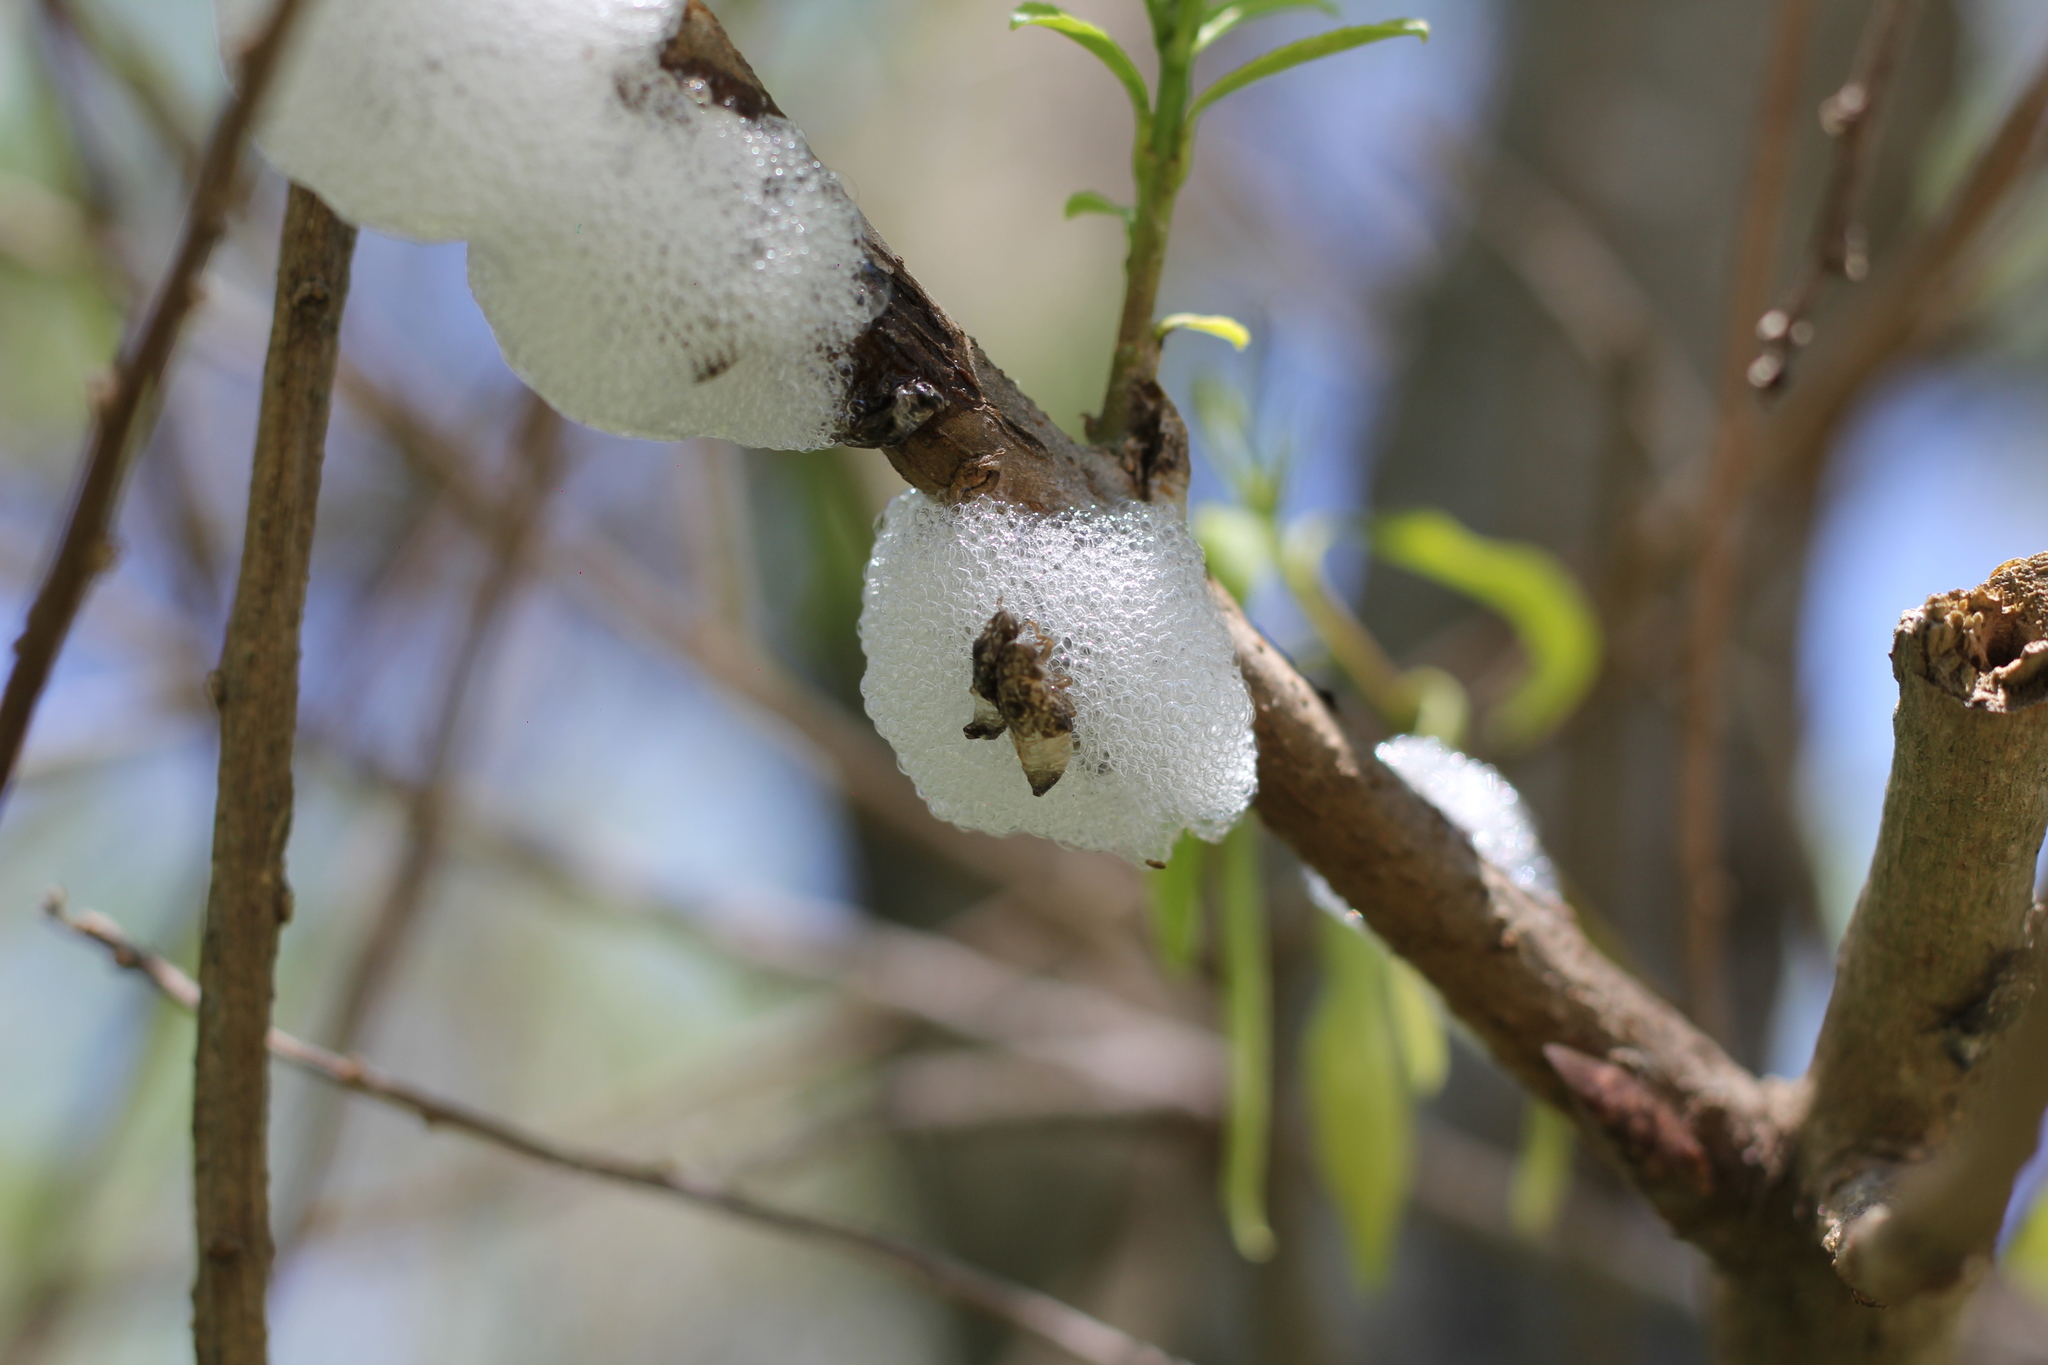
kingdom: Animalia
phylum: Arthropoda
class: Insecta
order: Hemiptera
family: Aphrophoridae
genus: Cephisus
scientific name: Cephisus siccifolius
